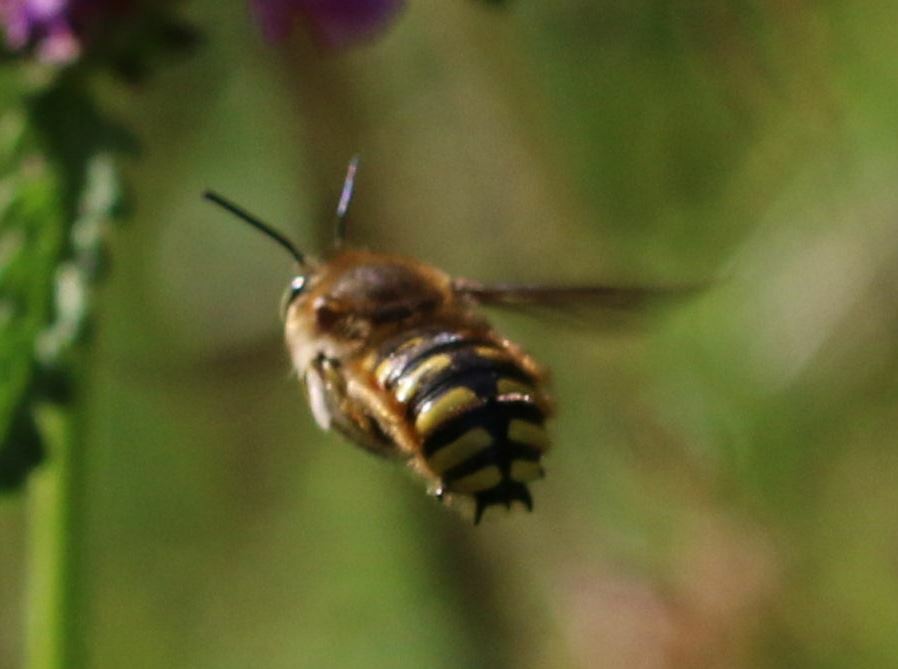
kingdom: Animalia
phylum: Arthropoda
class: Insecta
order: Hymenoptera
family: Megachilidae
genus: Anthidium
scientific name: Anthidium manicatum
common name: Wool carder bee
